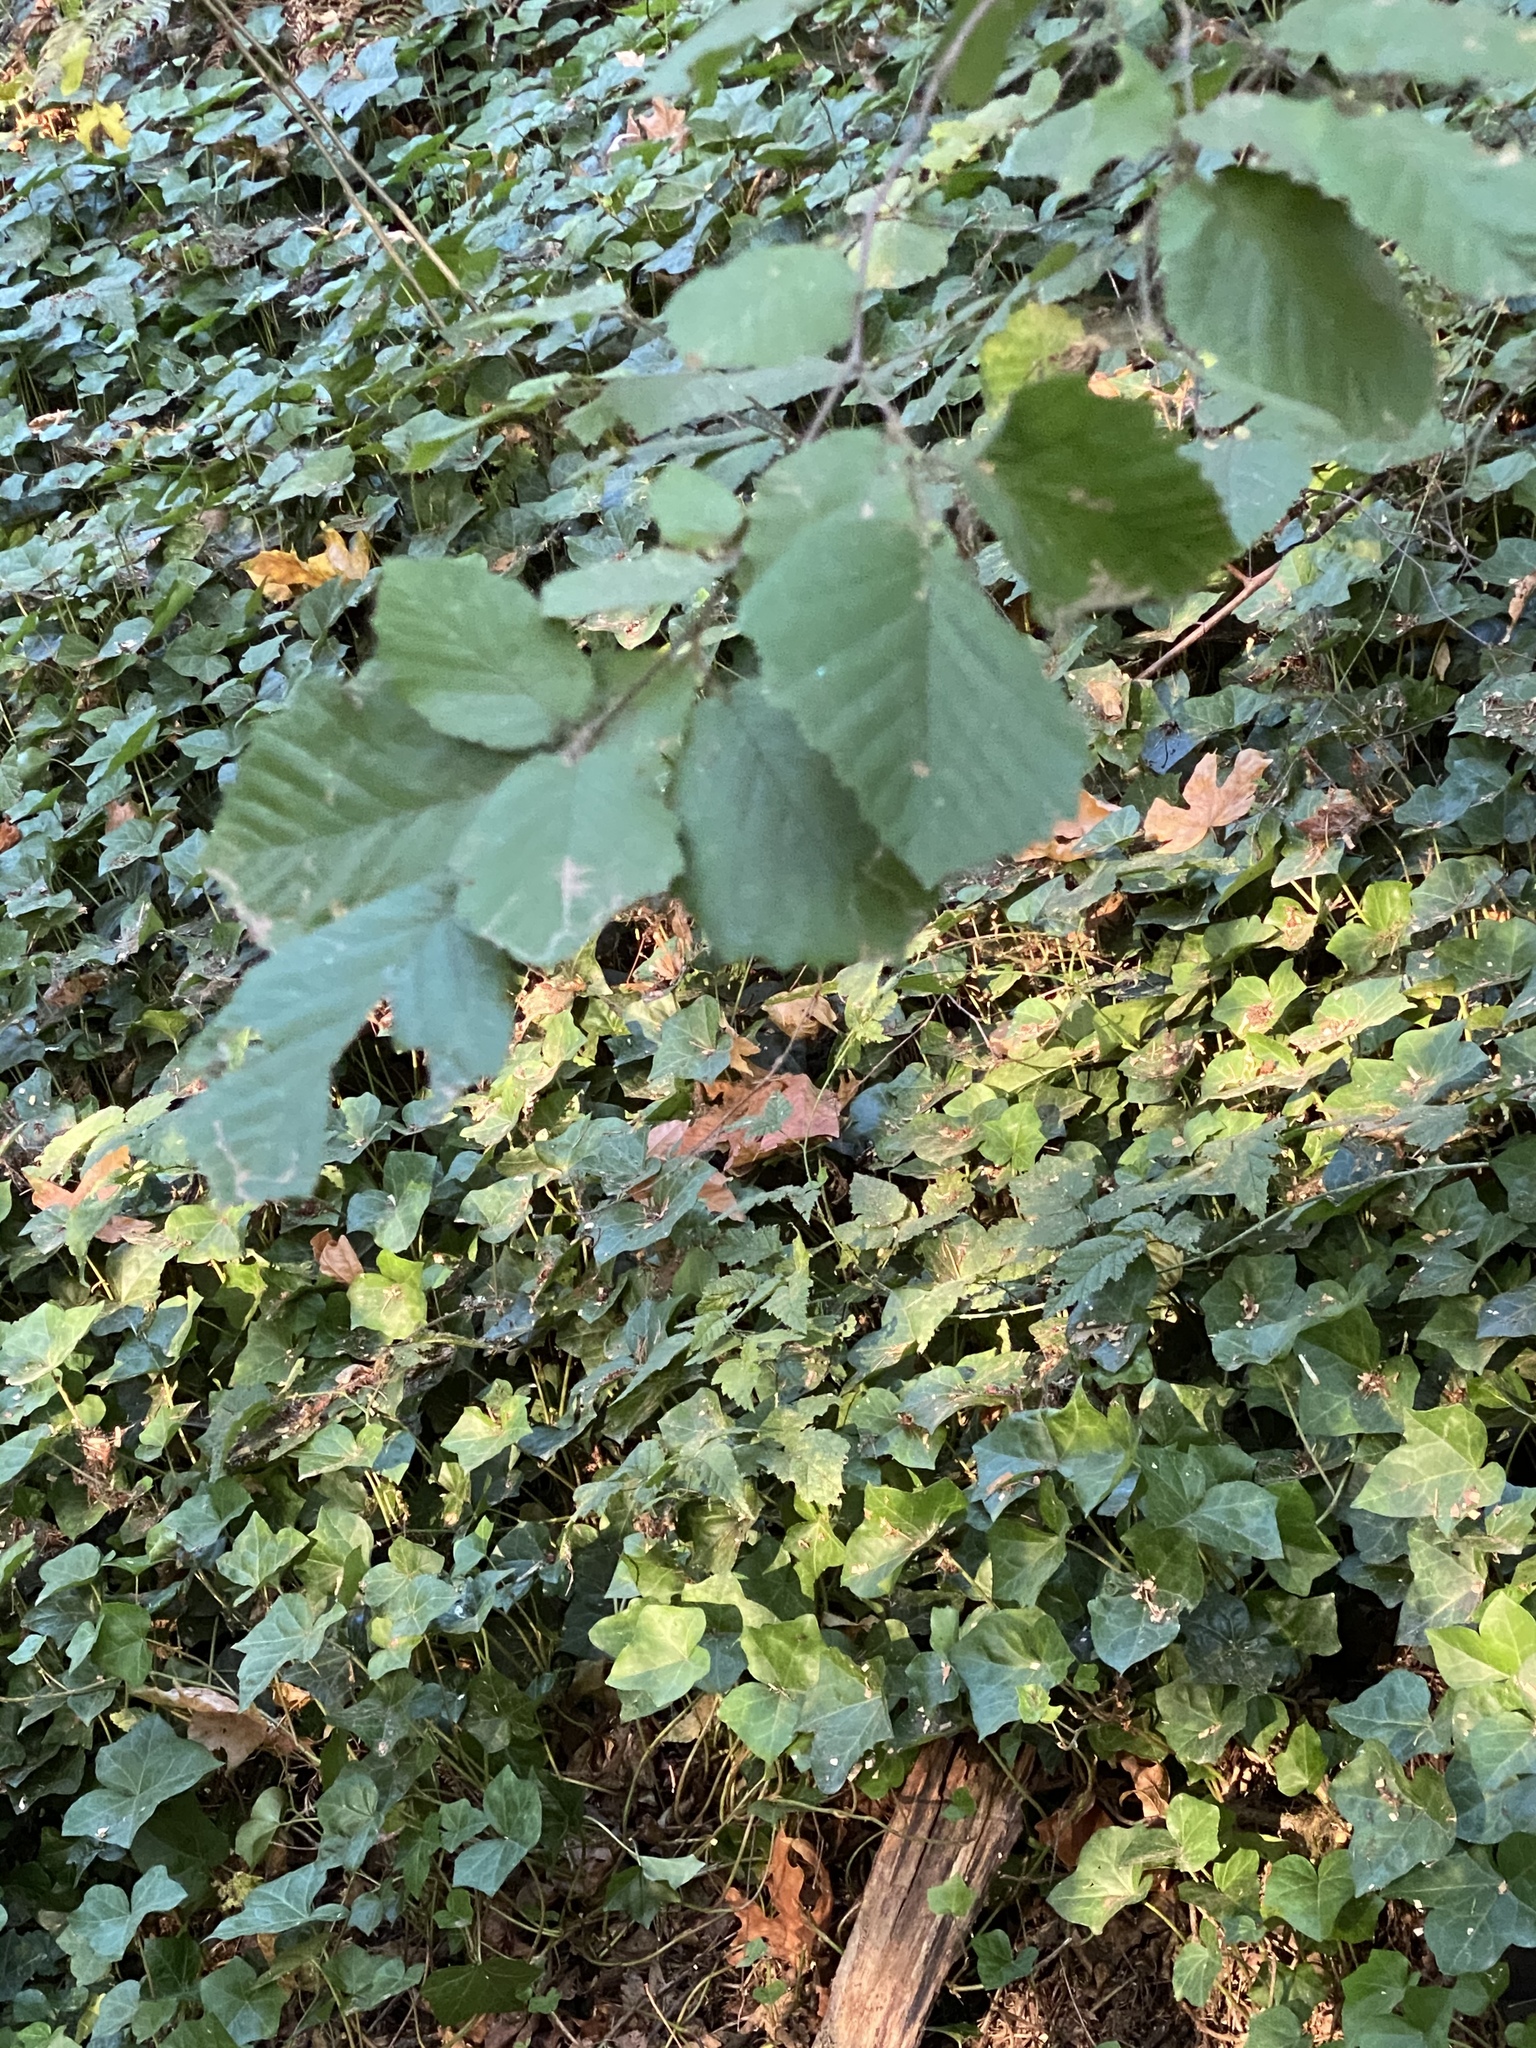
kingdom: Plantae
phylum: Tracheophyta
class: Magnoliopsida
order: Fagales
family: Betulaceae
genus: Corylus
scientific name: Corylus cornuta
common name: Beaked hazel
